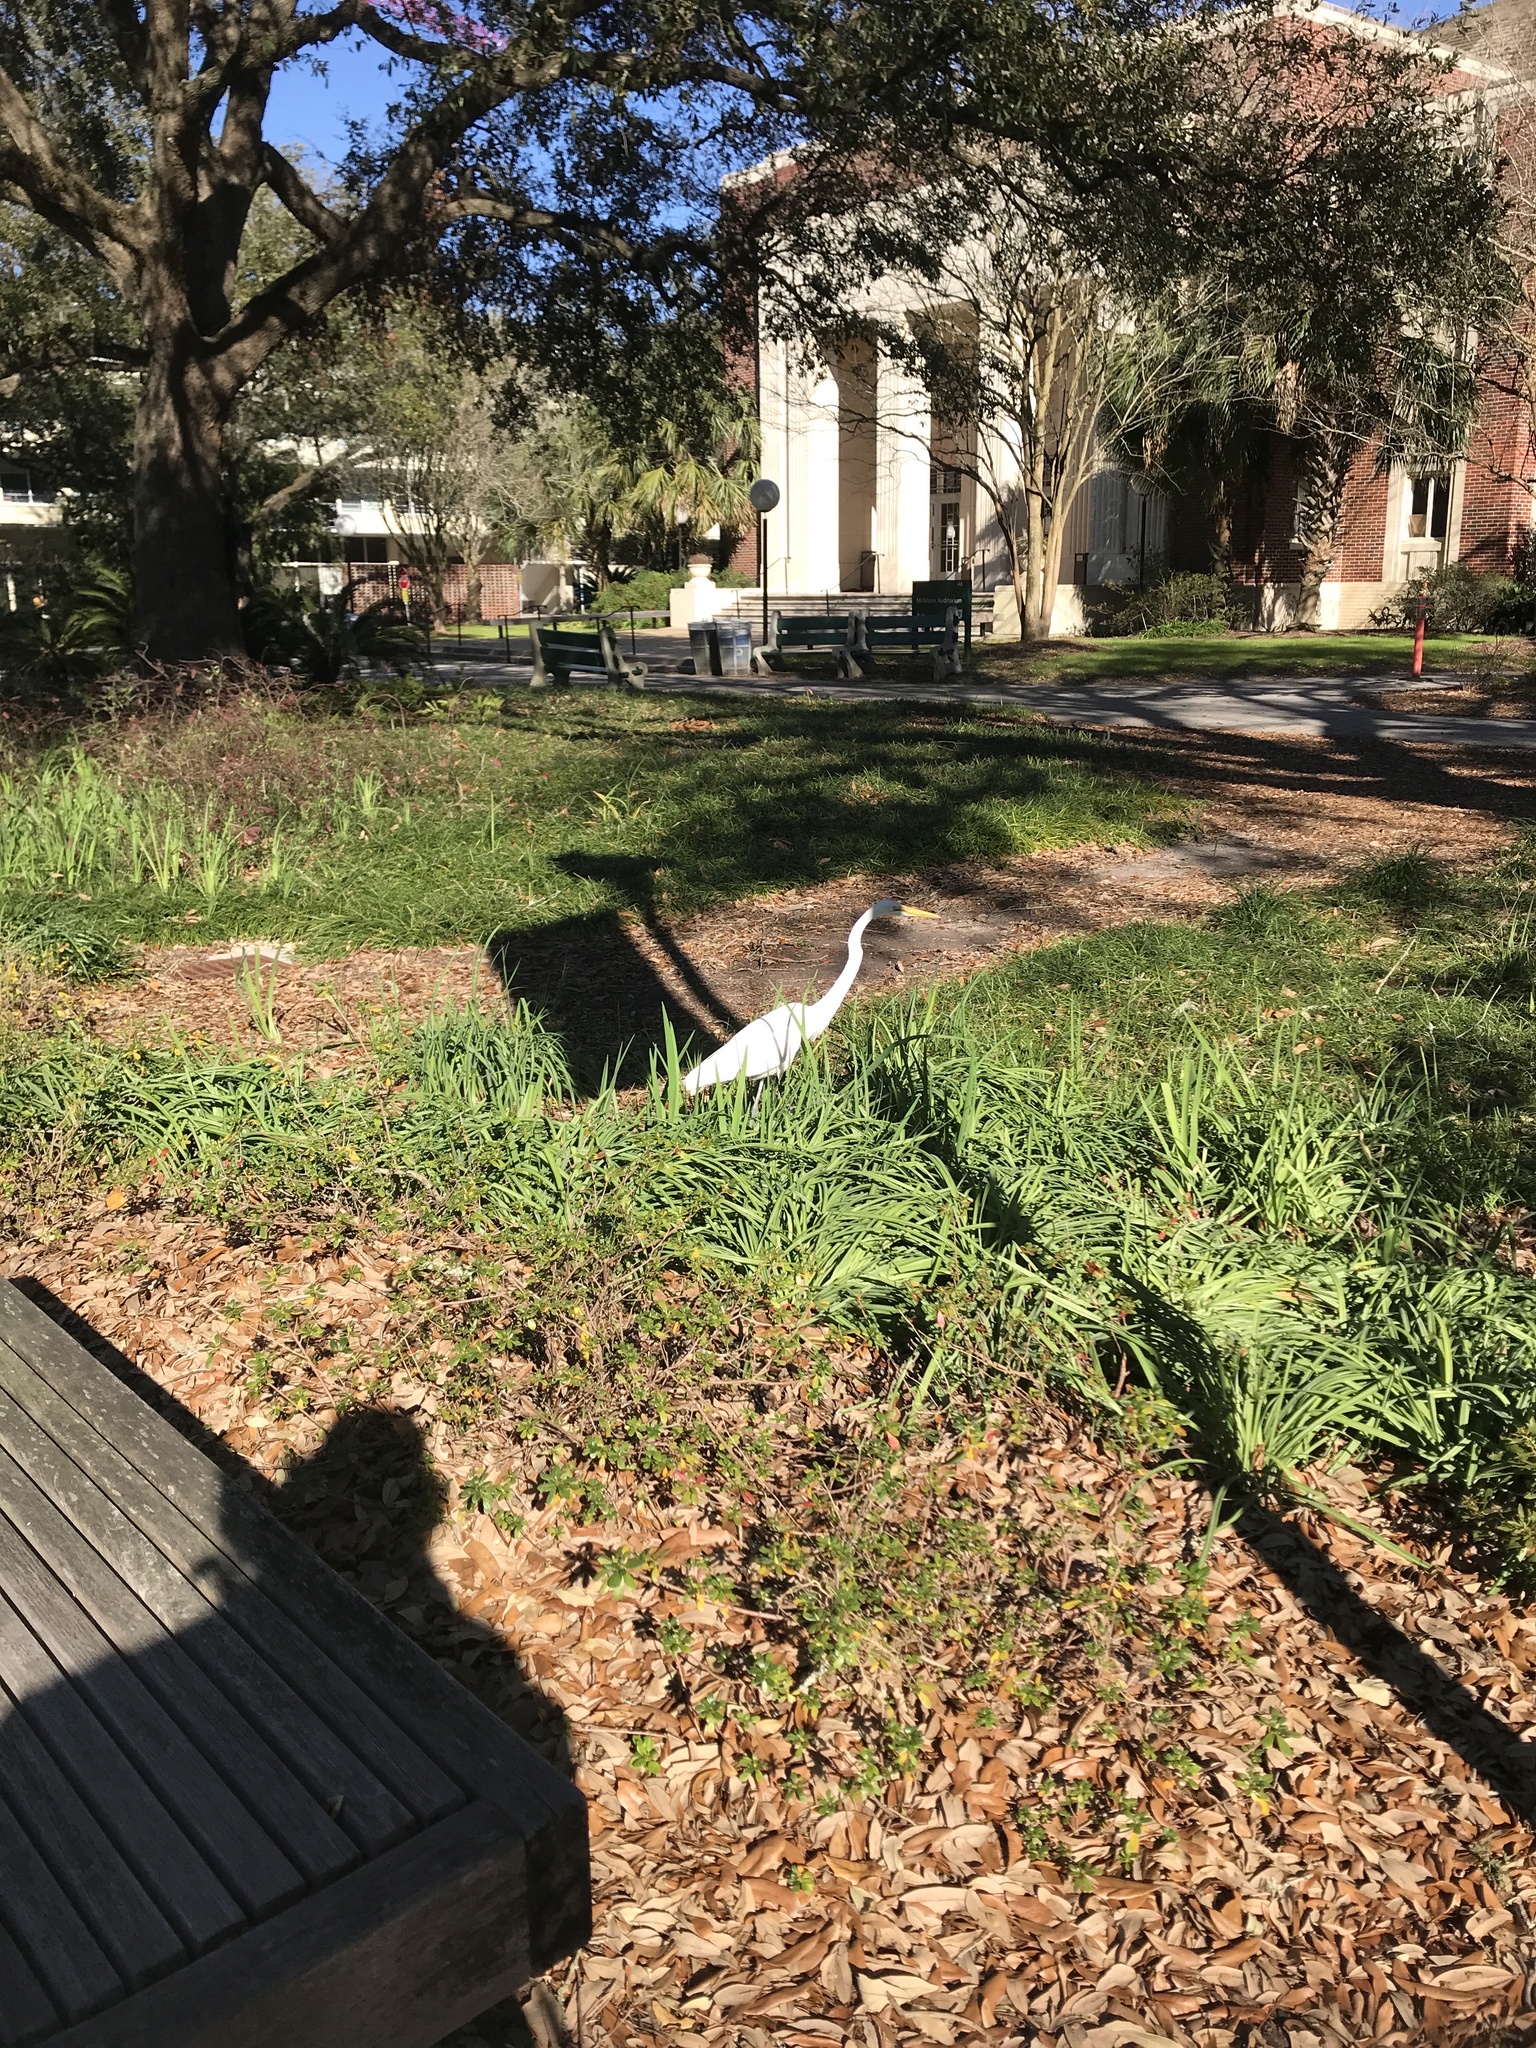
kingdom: Animalia
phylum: Chordata
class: Aves
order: Pelecaniformes
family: Ardeidae
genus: Ardea
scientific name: Ardea alba
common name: Great egret
